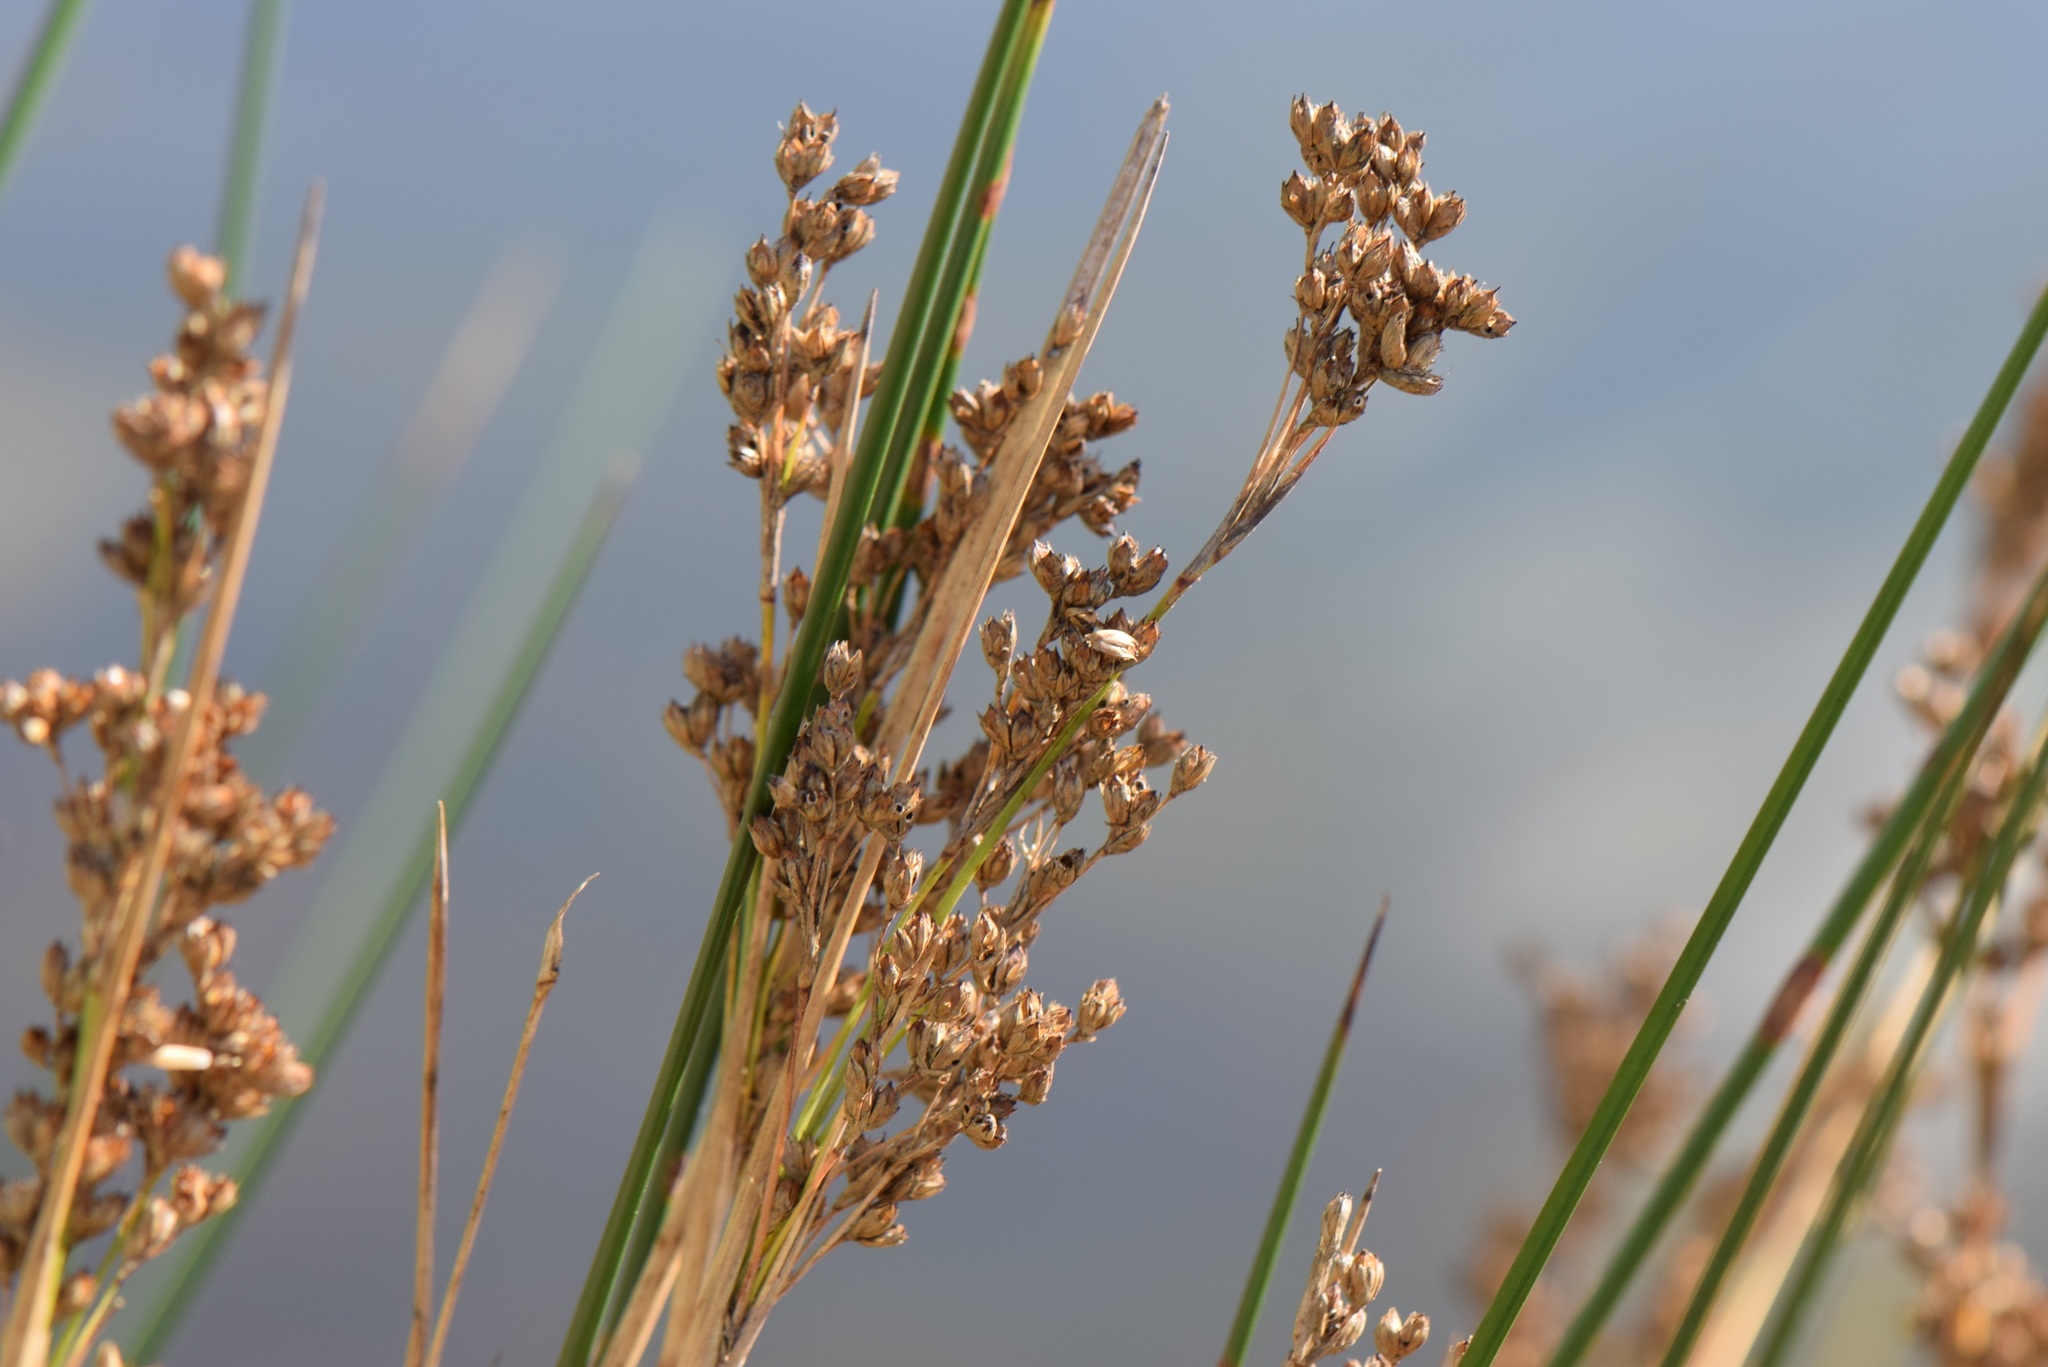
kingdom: Plantae
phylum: Tracheophyta
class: Liliopsida
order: Poales
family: Juncaceae
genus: Juncus
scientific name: Juncus maritimus
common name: Sea rush
